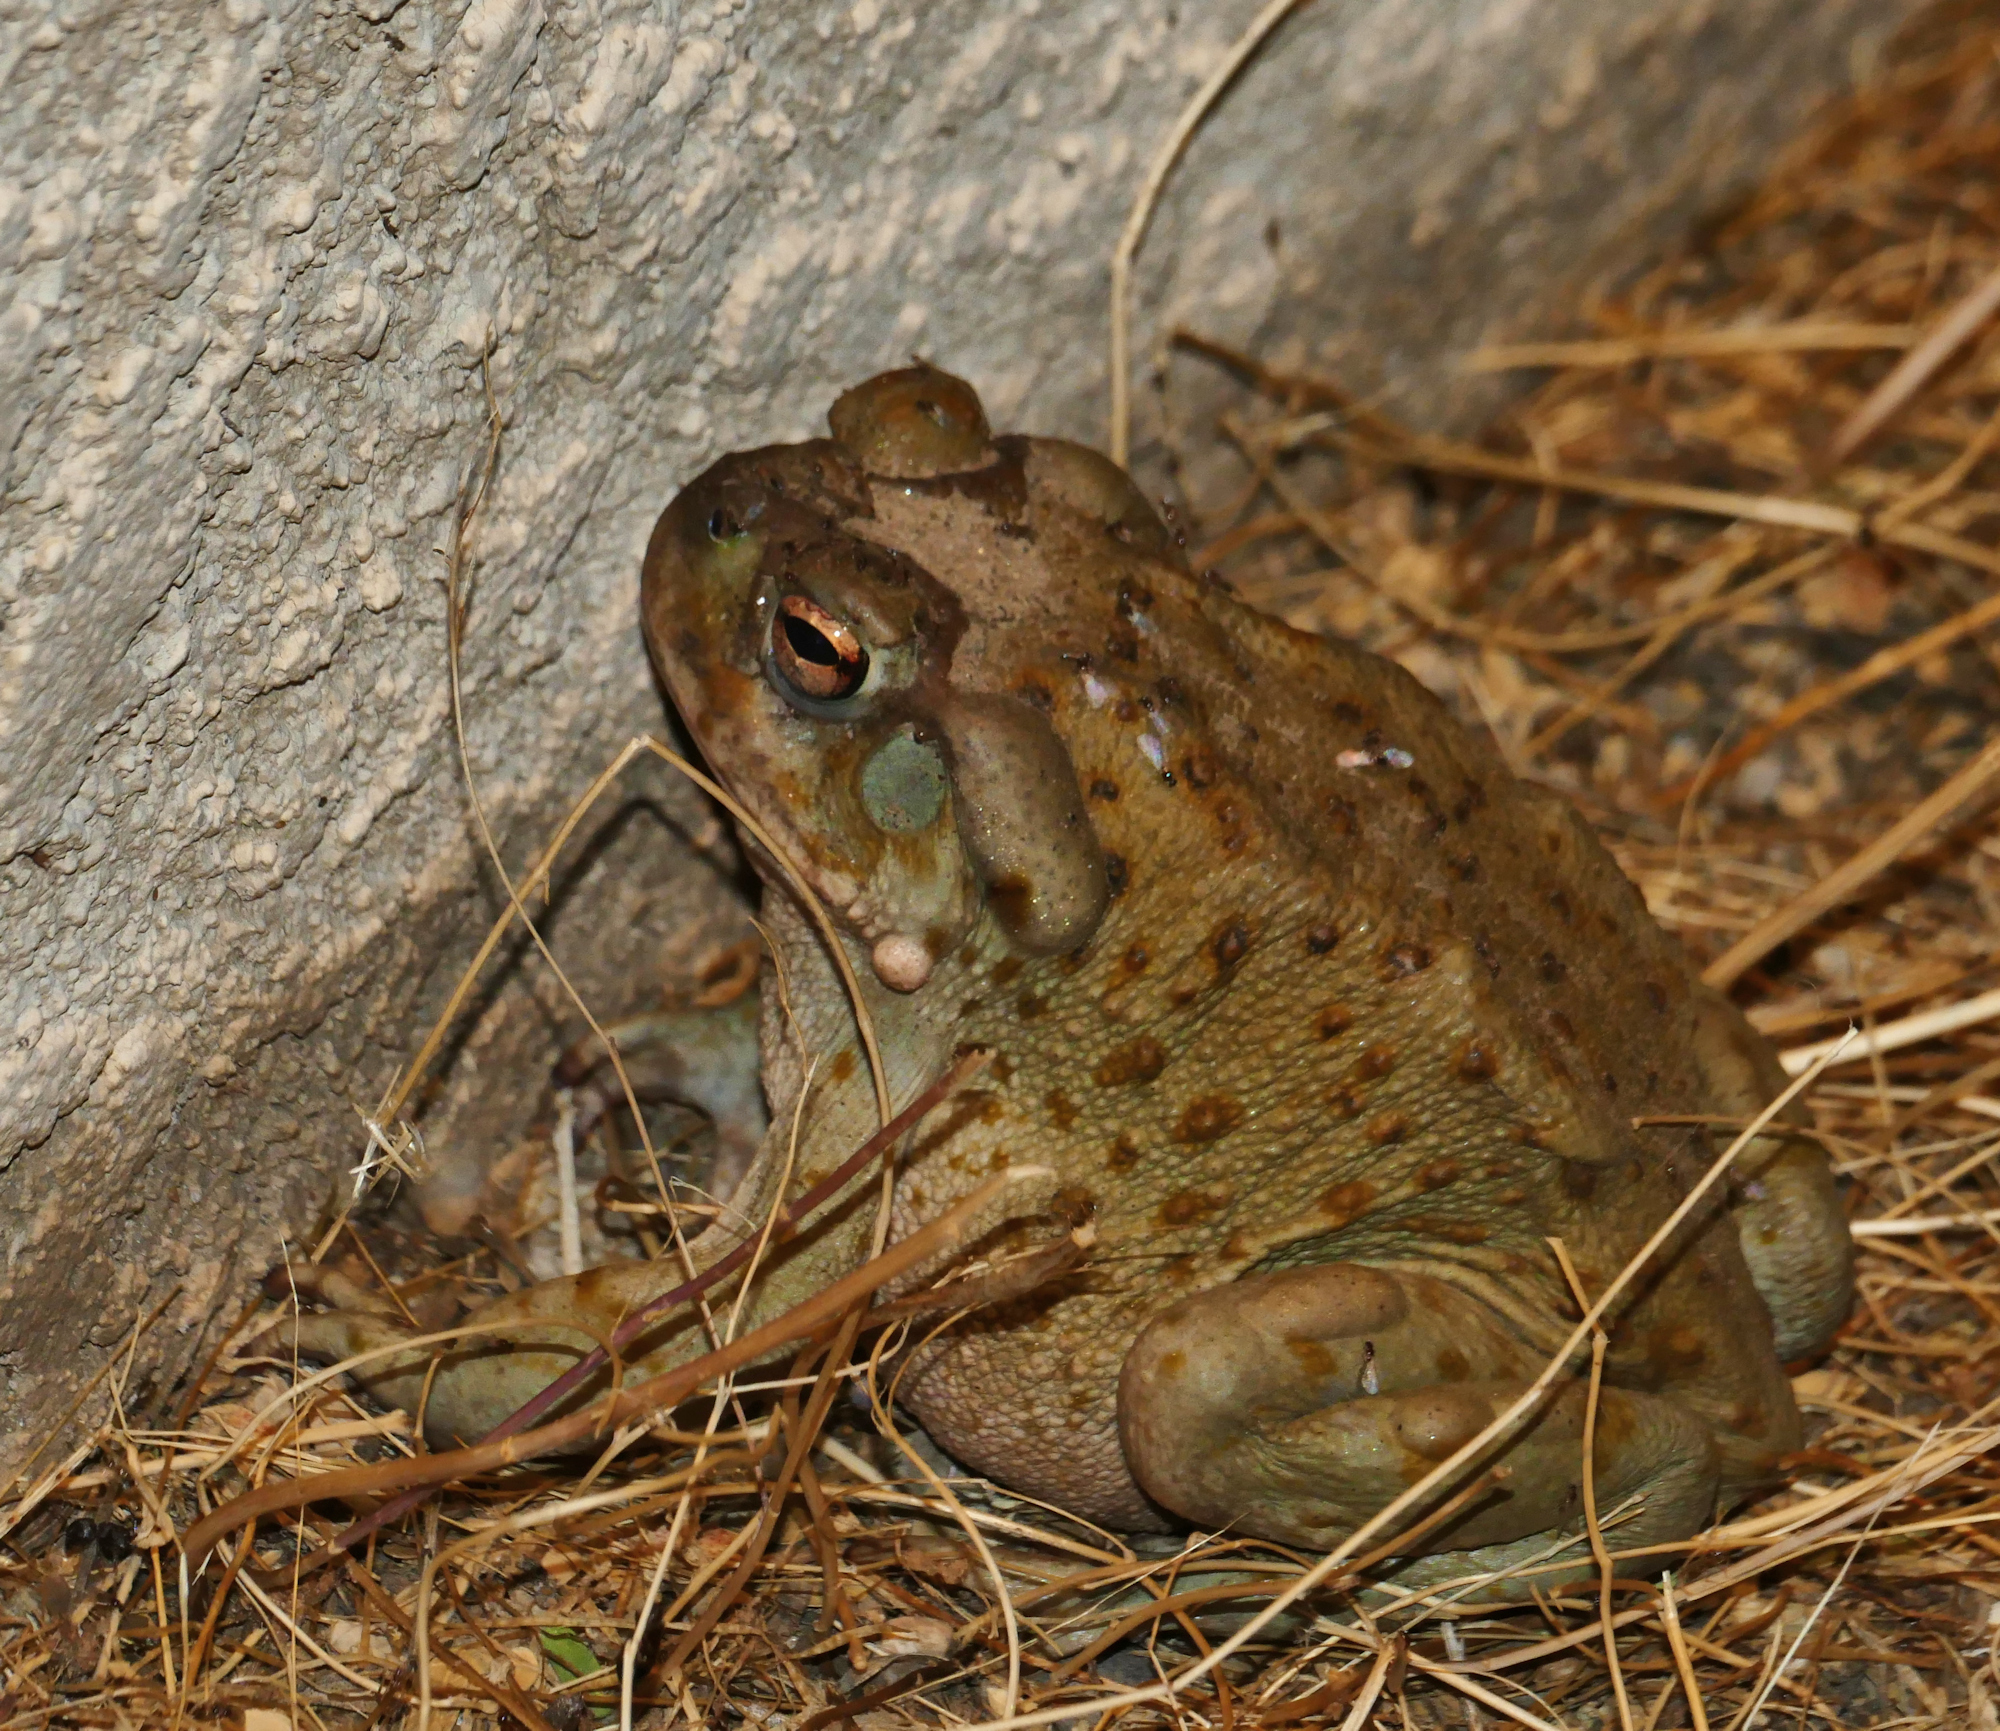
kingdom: Animalia
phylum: Chordata
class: Amphibia
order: Anura
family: Bufonidae
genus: Incilius
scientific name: Incilius alvarius
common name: Sonoran desert toad
